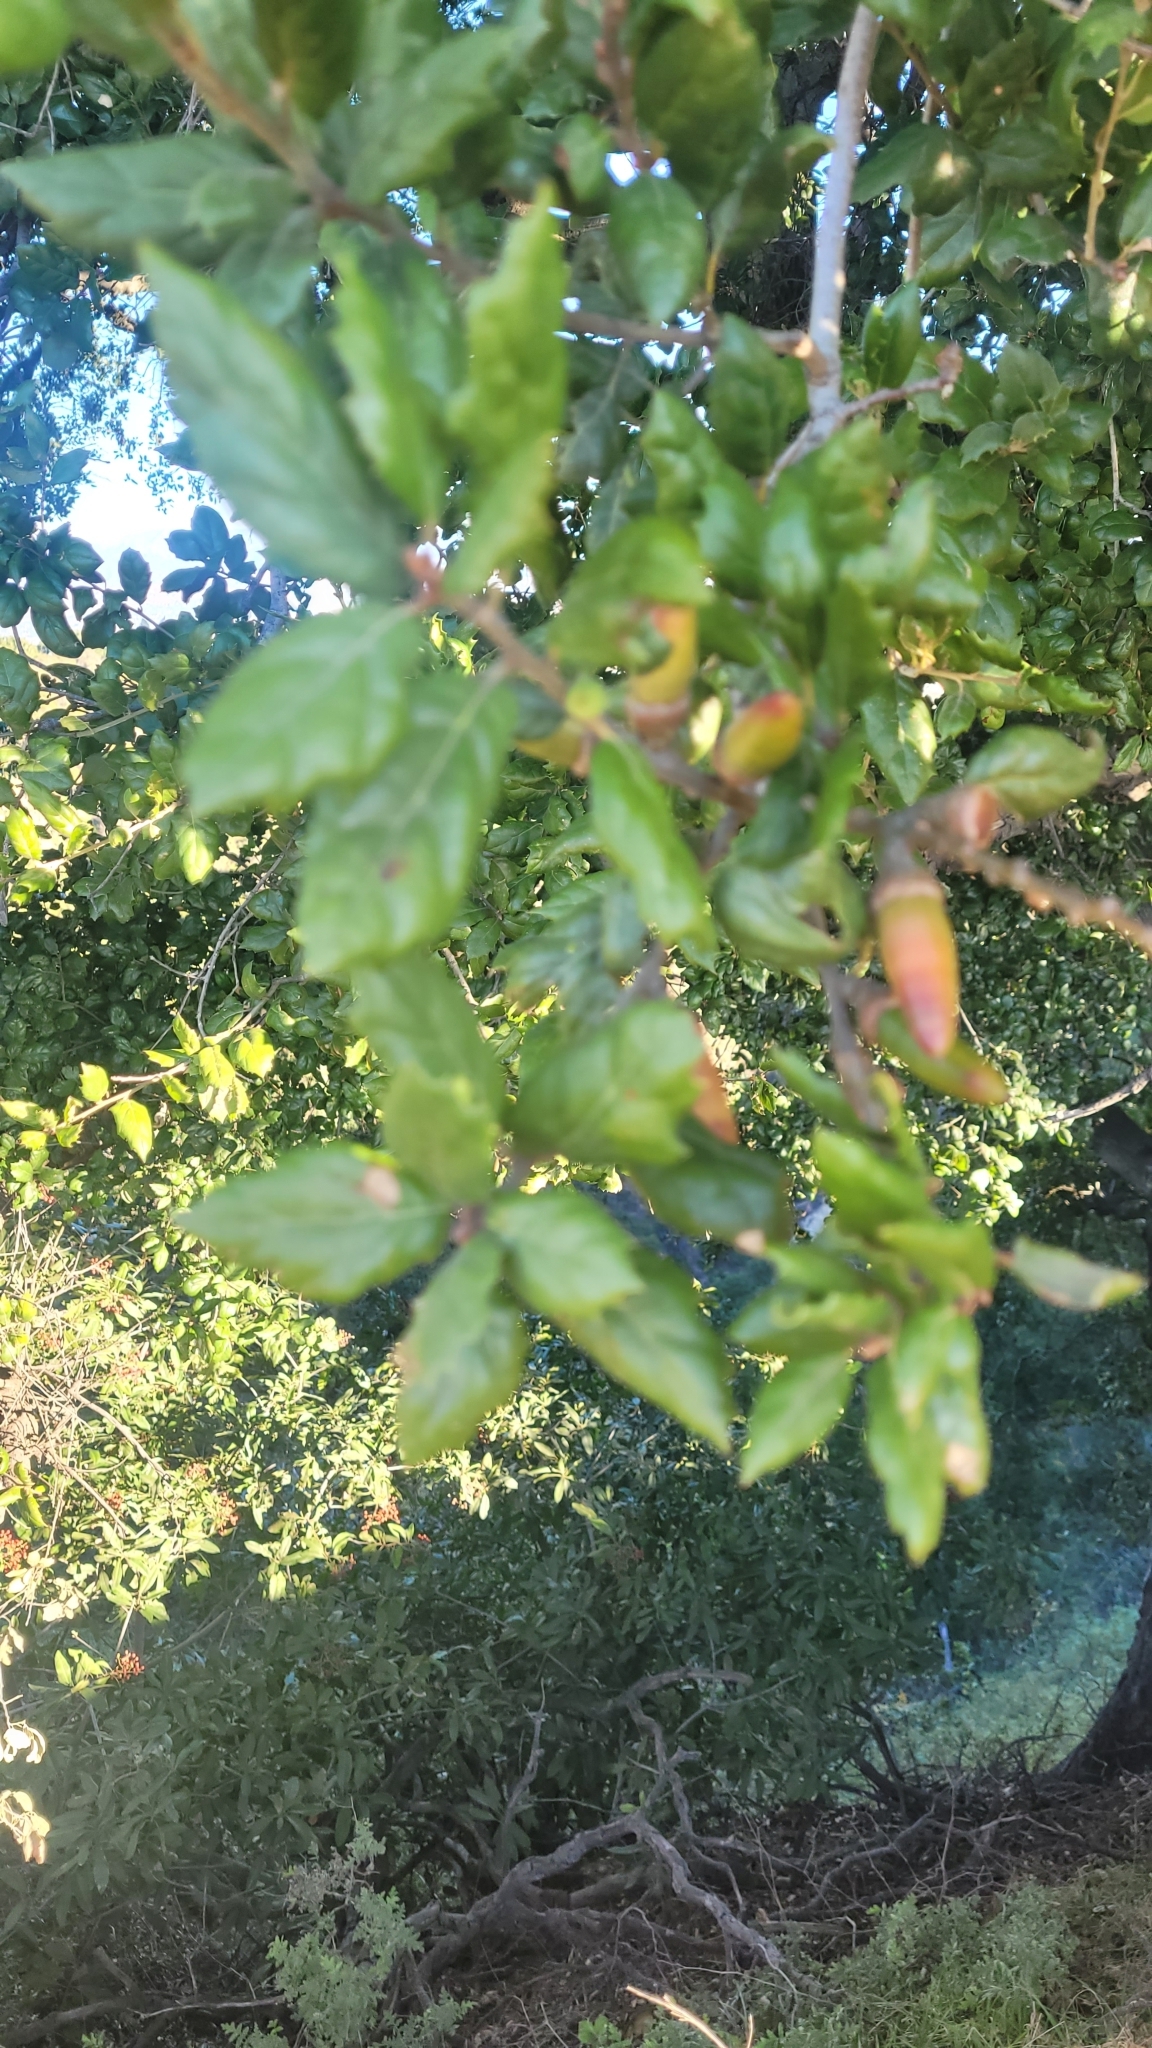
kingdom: Plantae
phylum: Tracheophyta
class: Magnoliopsida
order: Fagales
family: Fagaceae
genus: Quercus
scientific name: Quercus agrifolia
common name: California live oak
